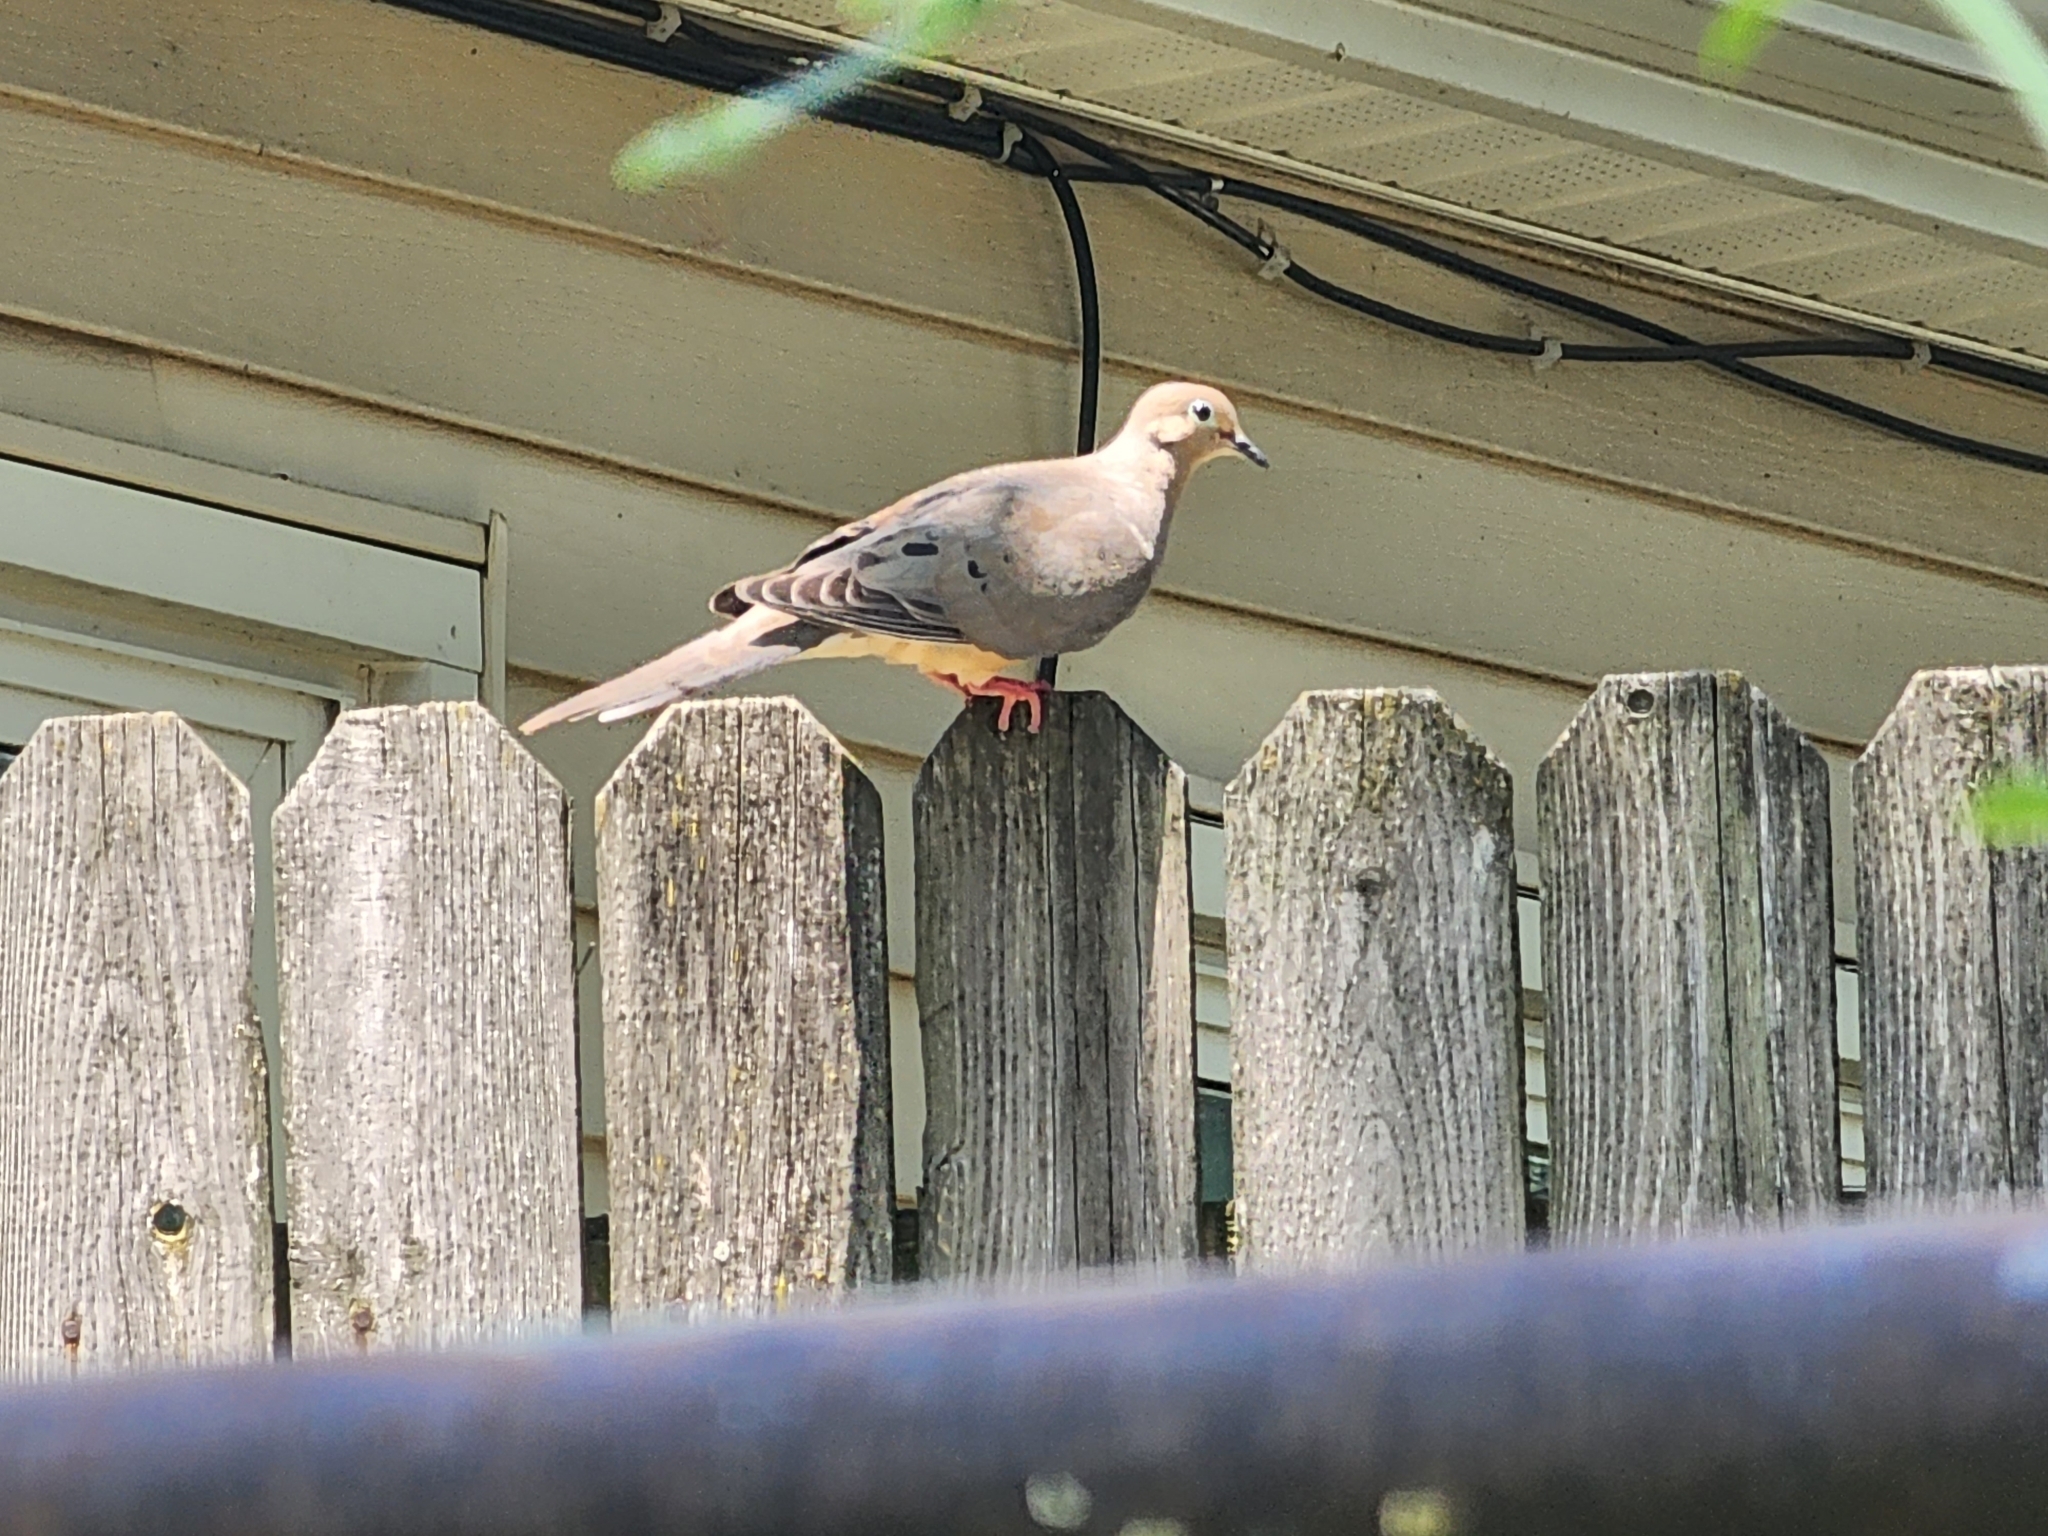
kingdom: Animalia
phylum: Chordata
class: Aves
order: Columbiformes
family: Columbidae
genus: Zenaida
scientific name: Zenaida macroura
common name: Mourning dove
